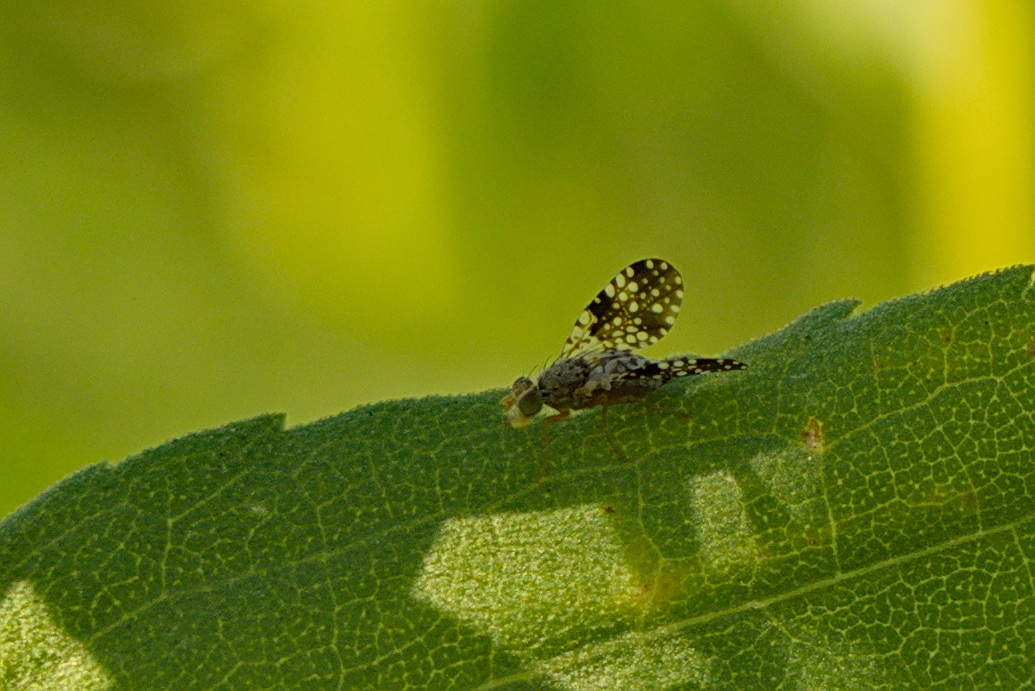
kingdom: Animalia
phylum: Arthropoda
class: Insecta
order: Diptera
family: Tephritidae
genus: Campiglossa
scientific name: Campiglossa albiceps
